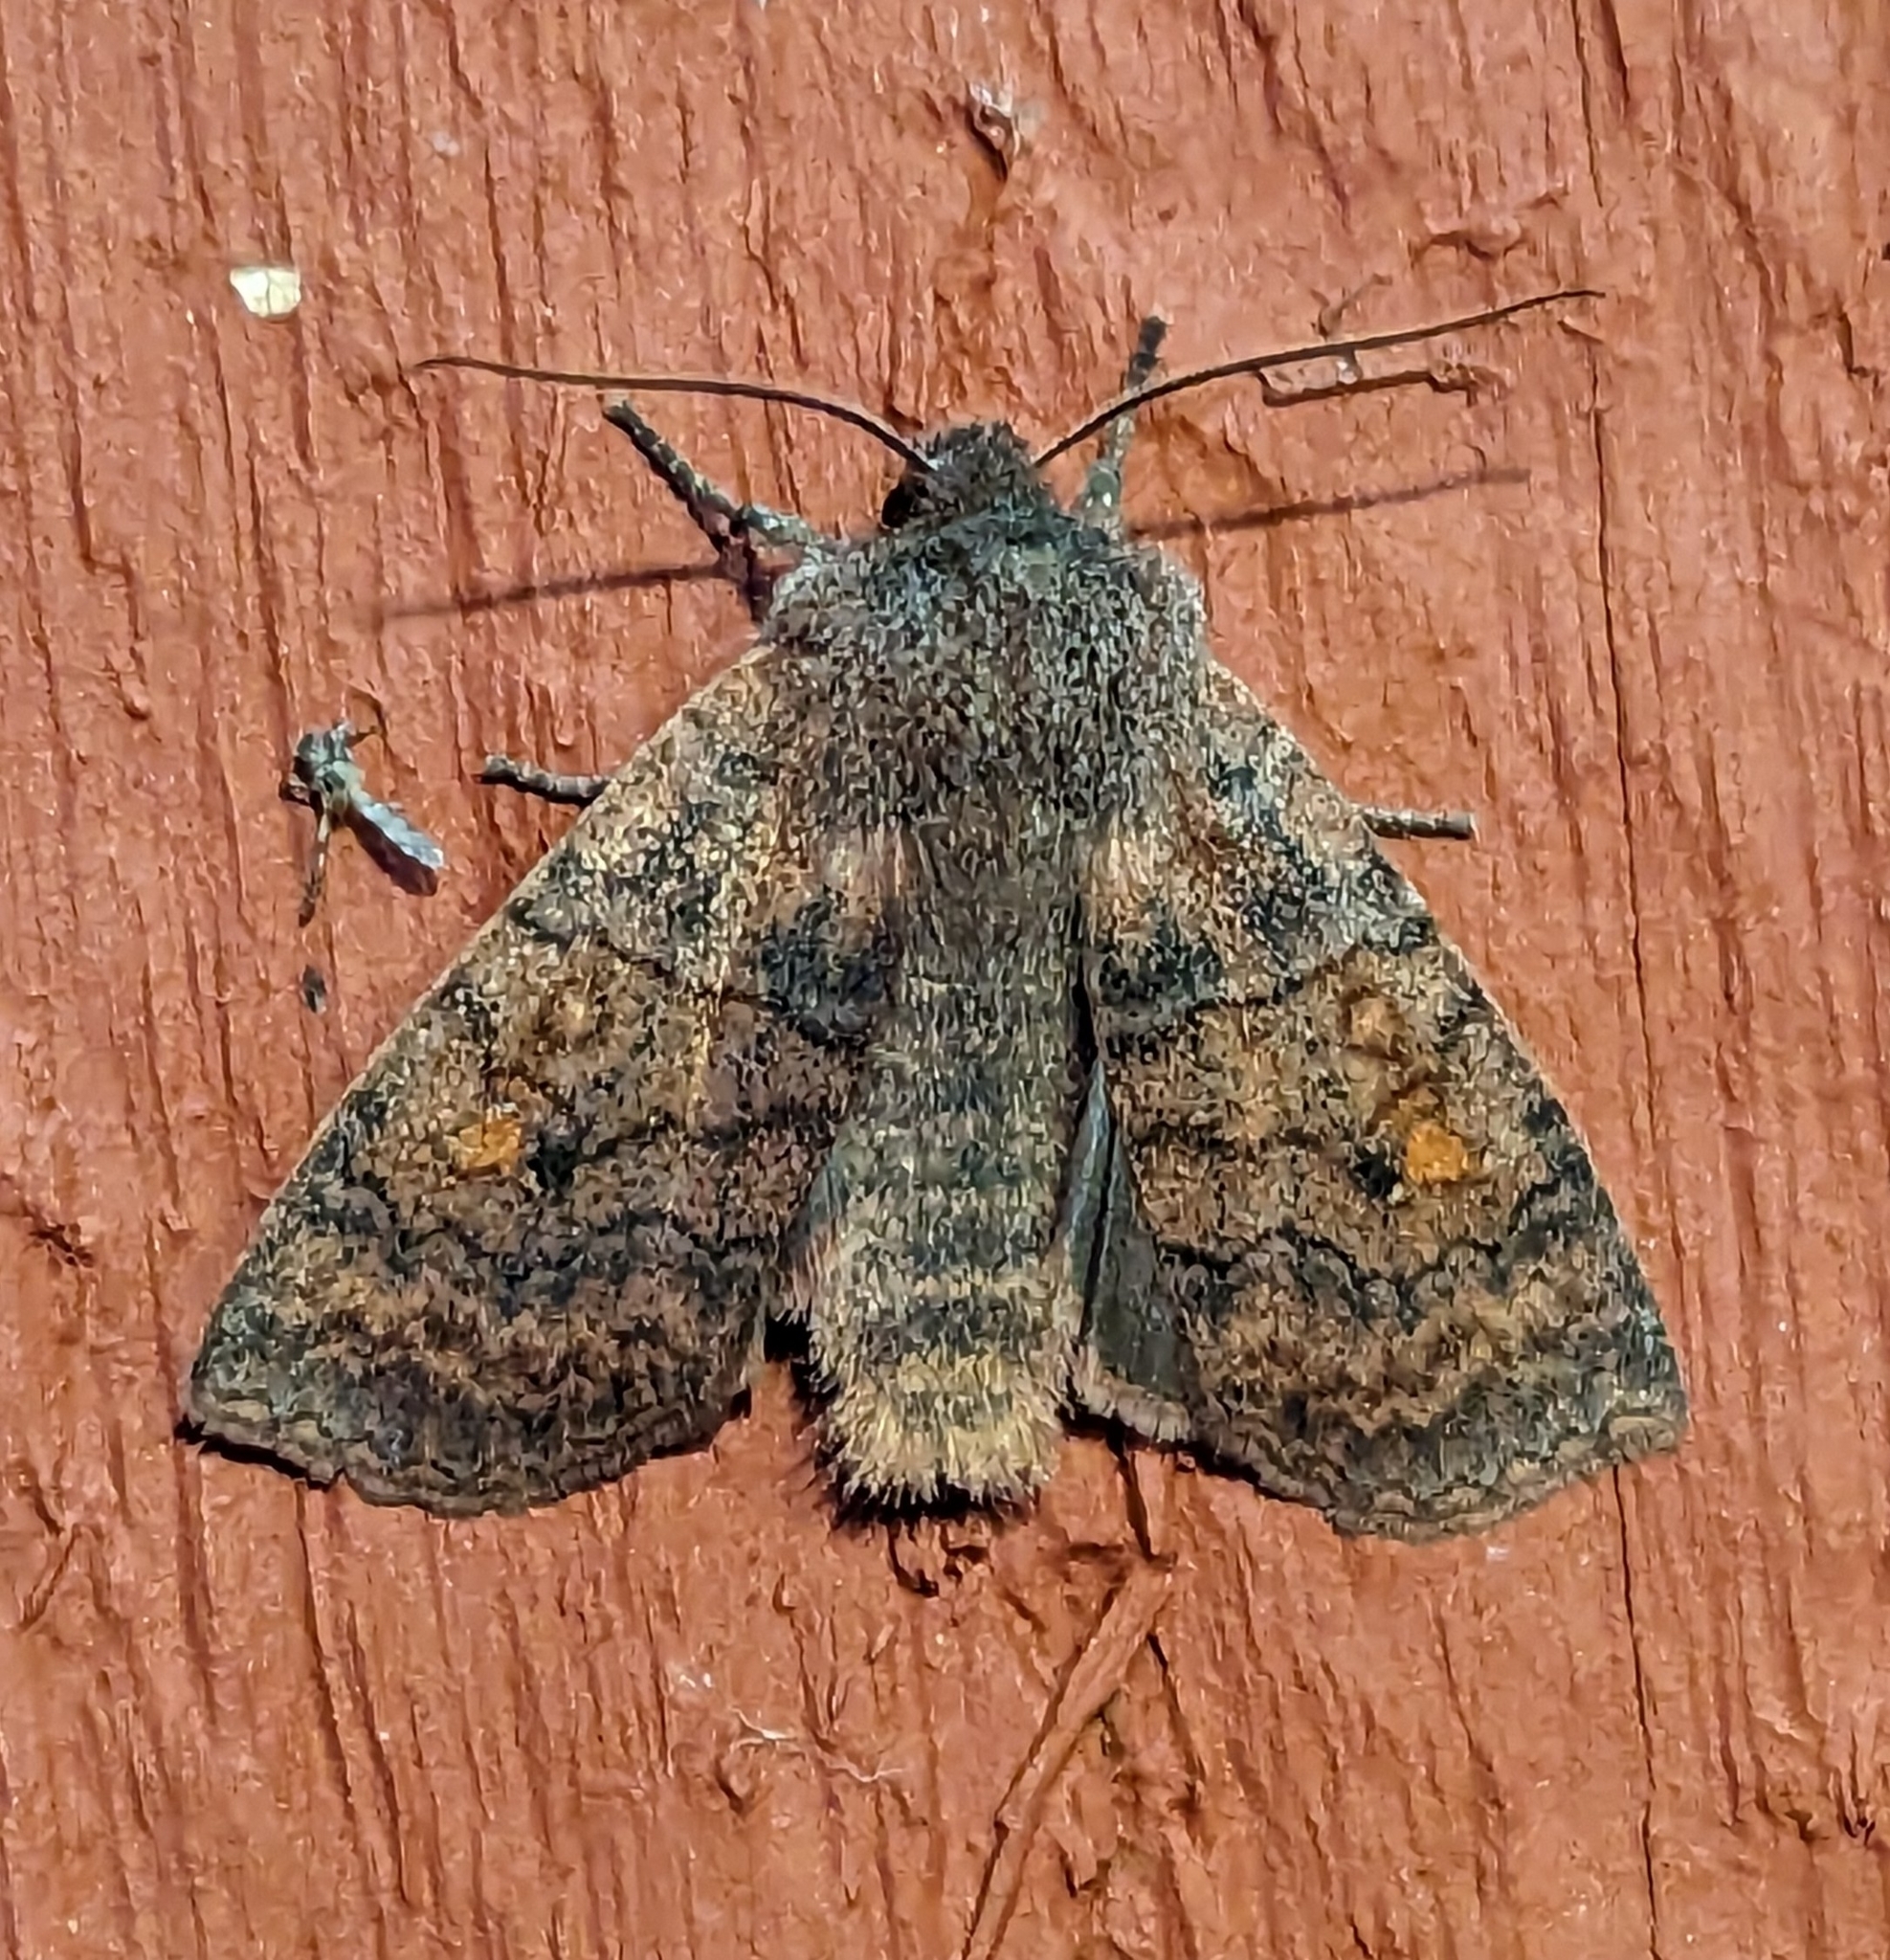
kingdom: Animalia
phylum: Arthropoda
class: Insecta
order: Lepidoptera
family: Noctuidae
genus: Eupsilia
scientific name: Eupsilia tristigmata
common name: Three-spotted sallow
